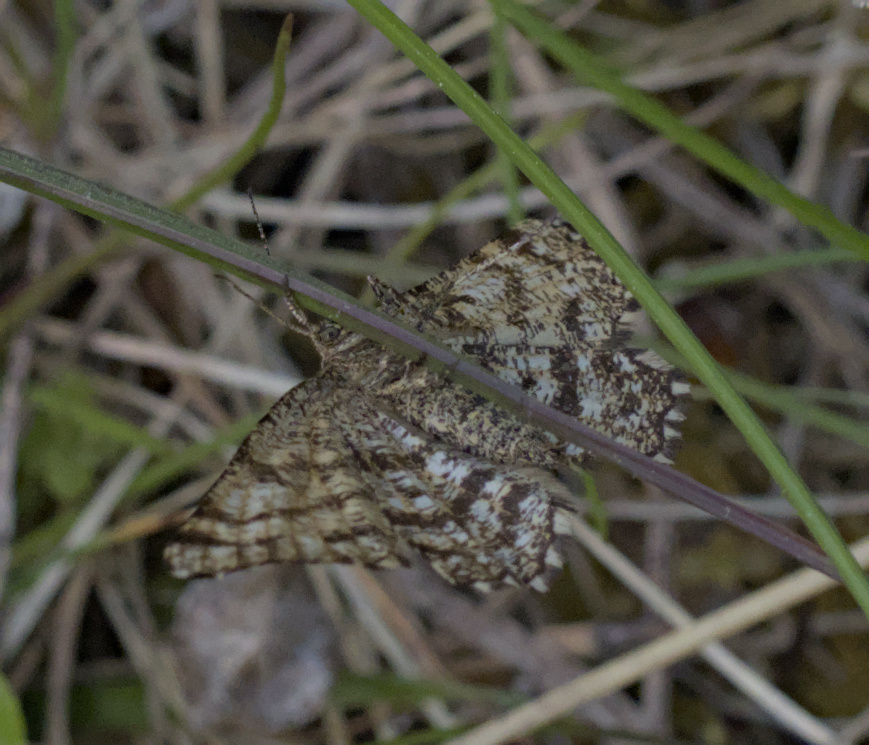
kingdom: Animalia
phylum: Arthropoda
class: Insecta
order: Lepidoptera
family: Geometridae
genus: Ematurga
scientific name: Ematurga atomaria
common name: Common heath
